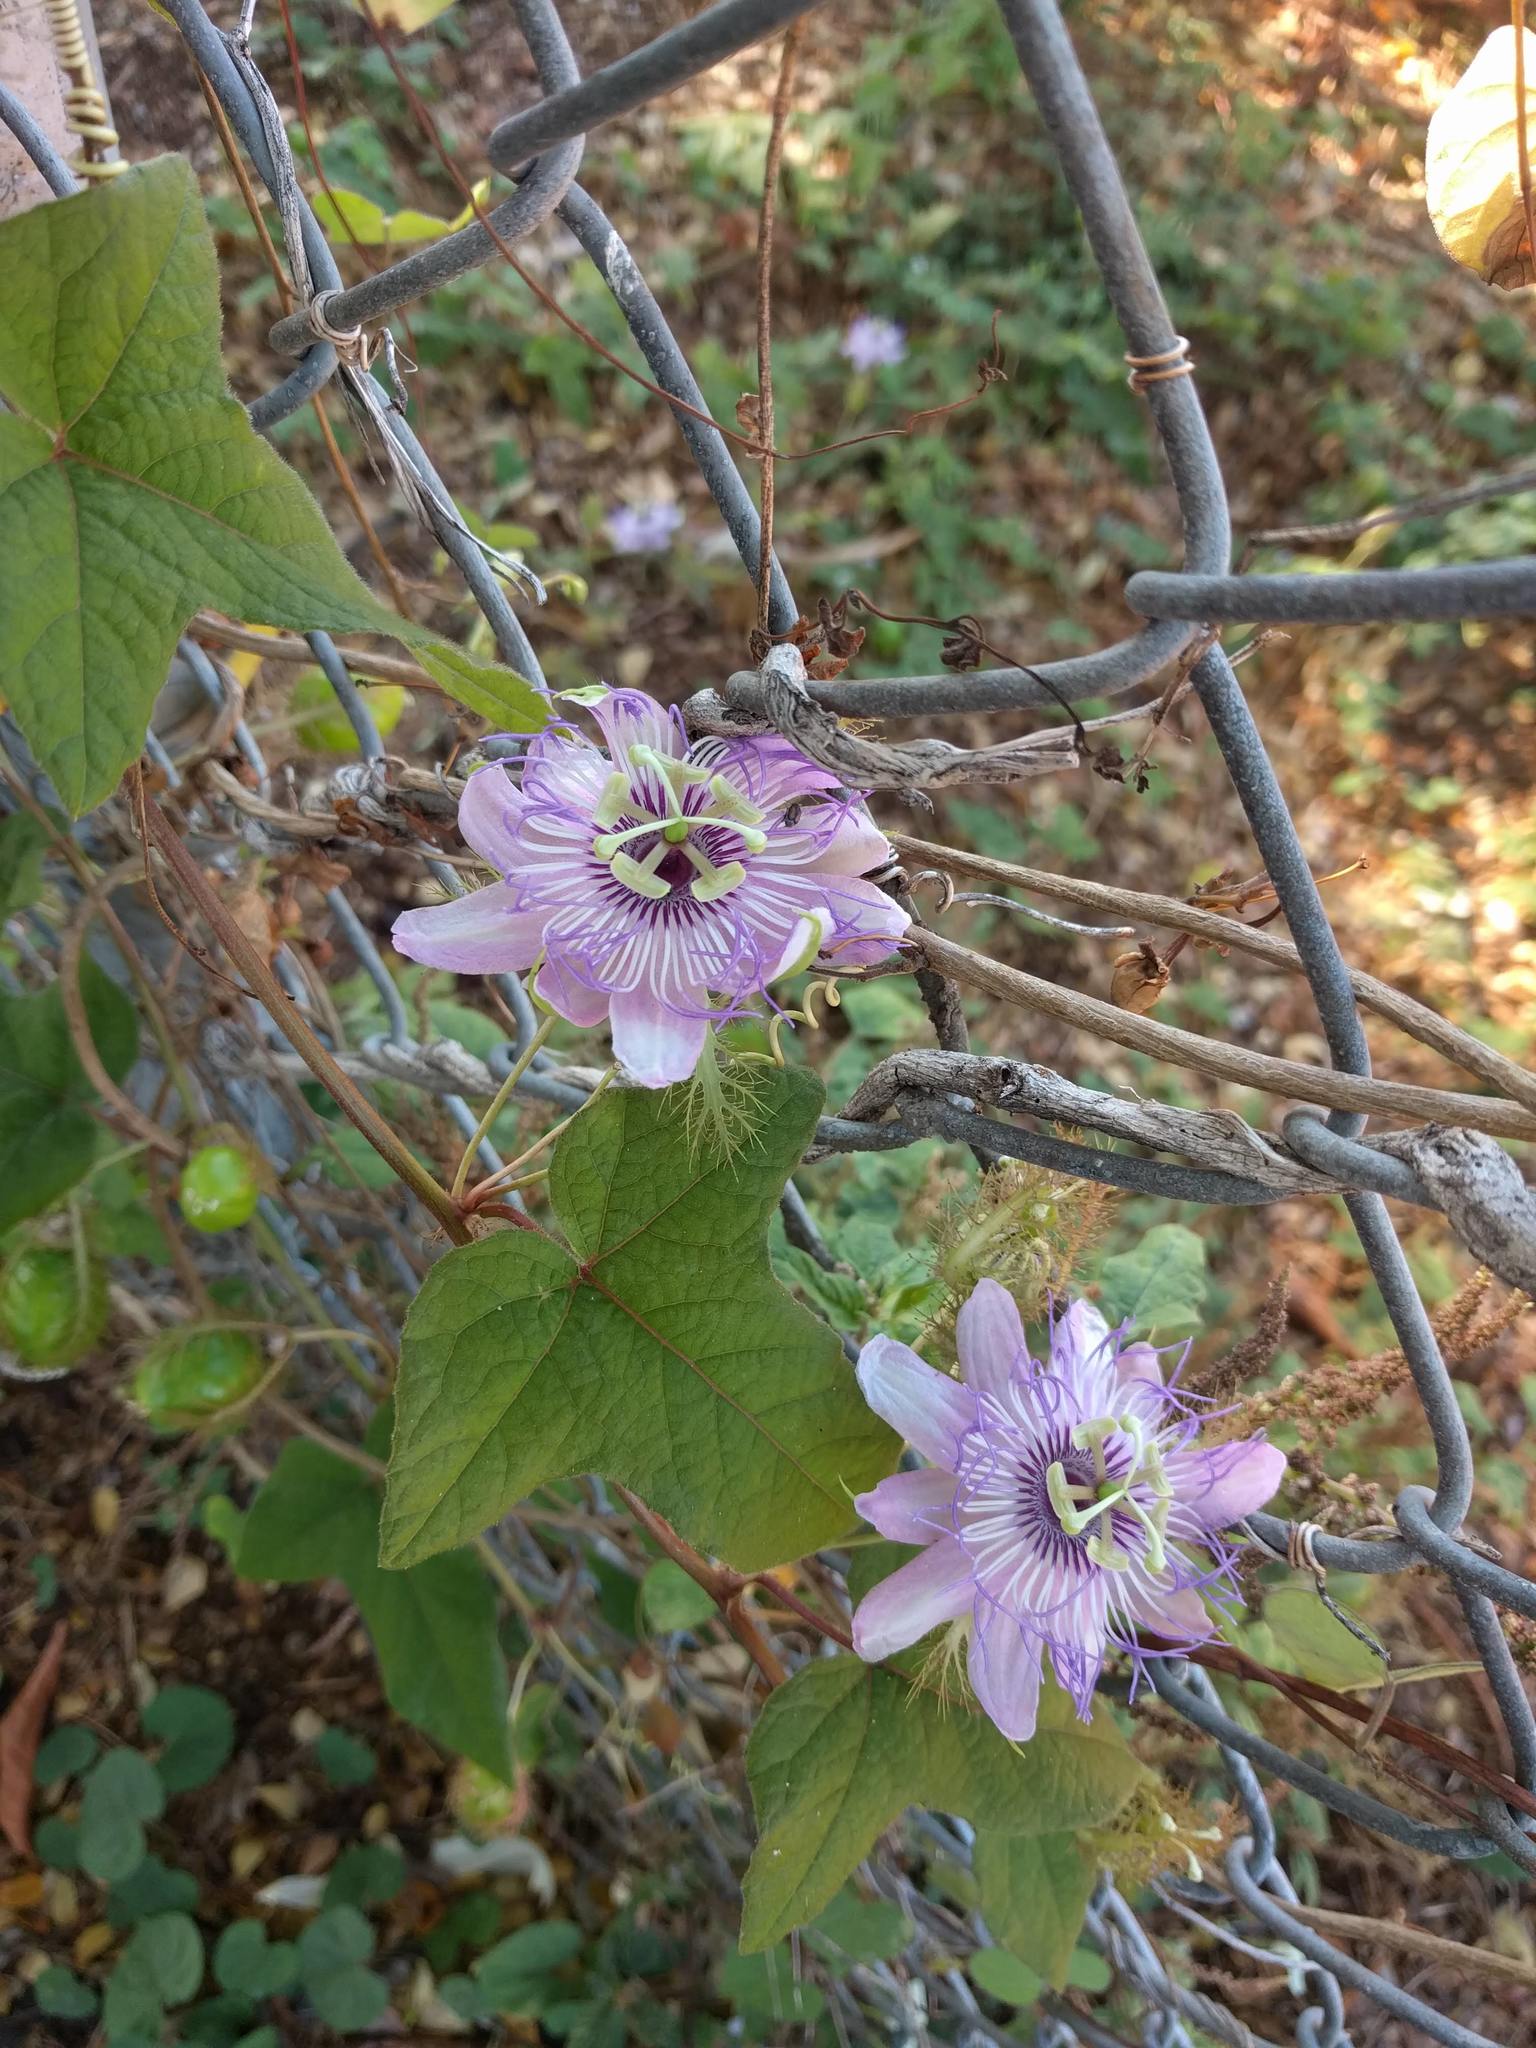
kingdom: Plantae
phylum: Tracheophyta
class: Magnoliopsida
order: Malpighiales
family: Passifloraceae
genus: Passiflora
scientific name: Passiflora foetida
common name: Fetid passionflower
